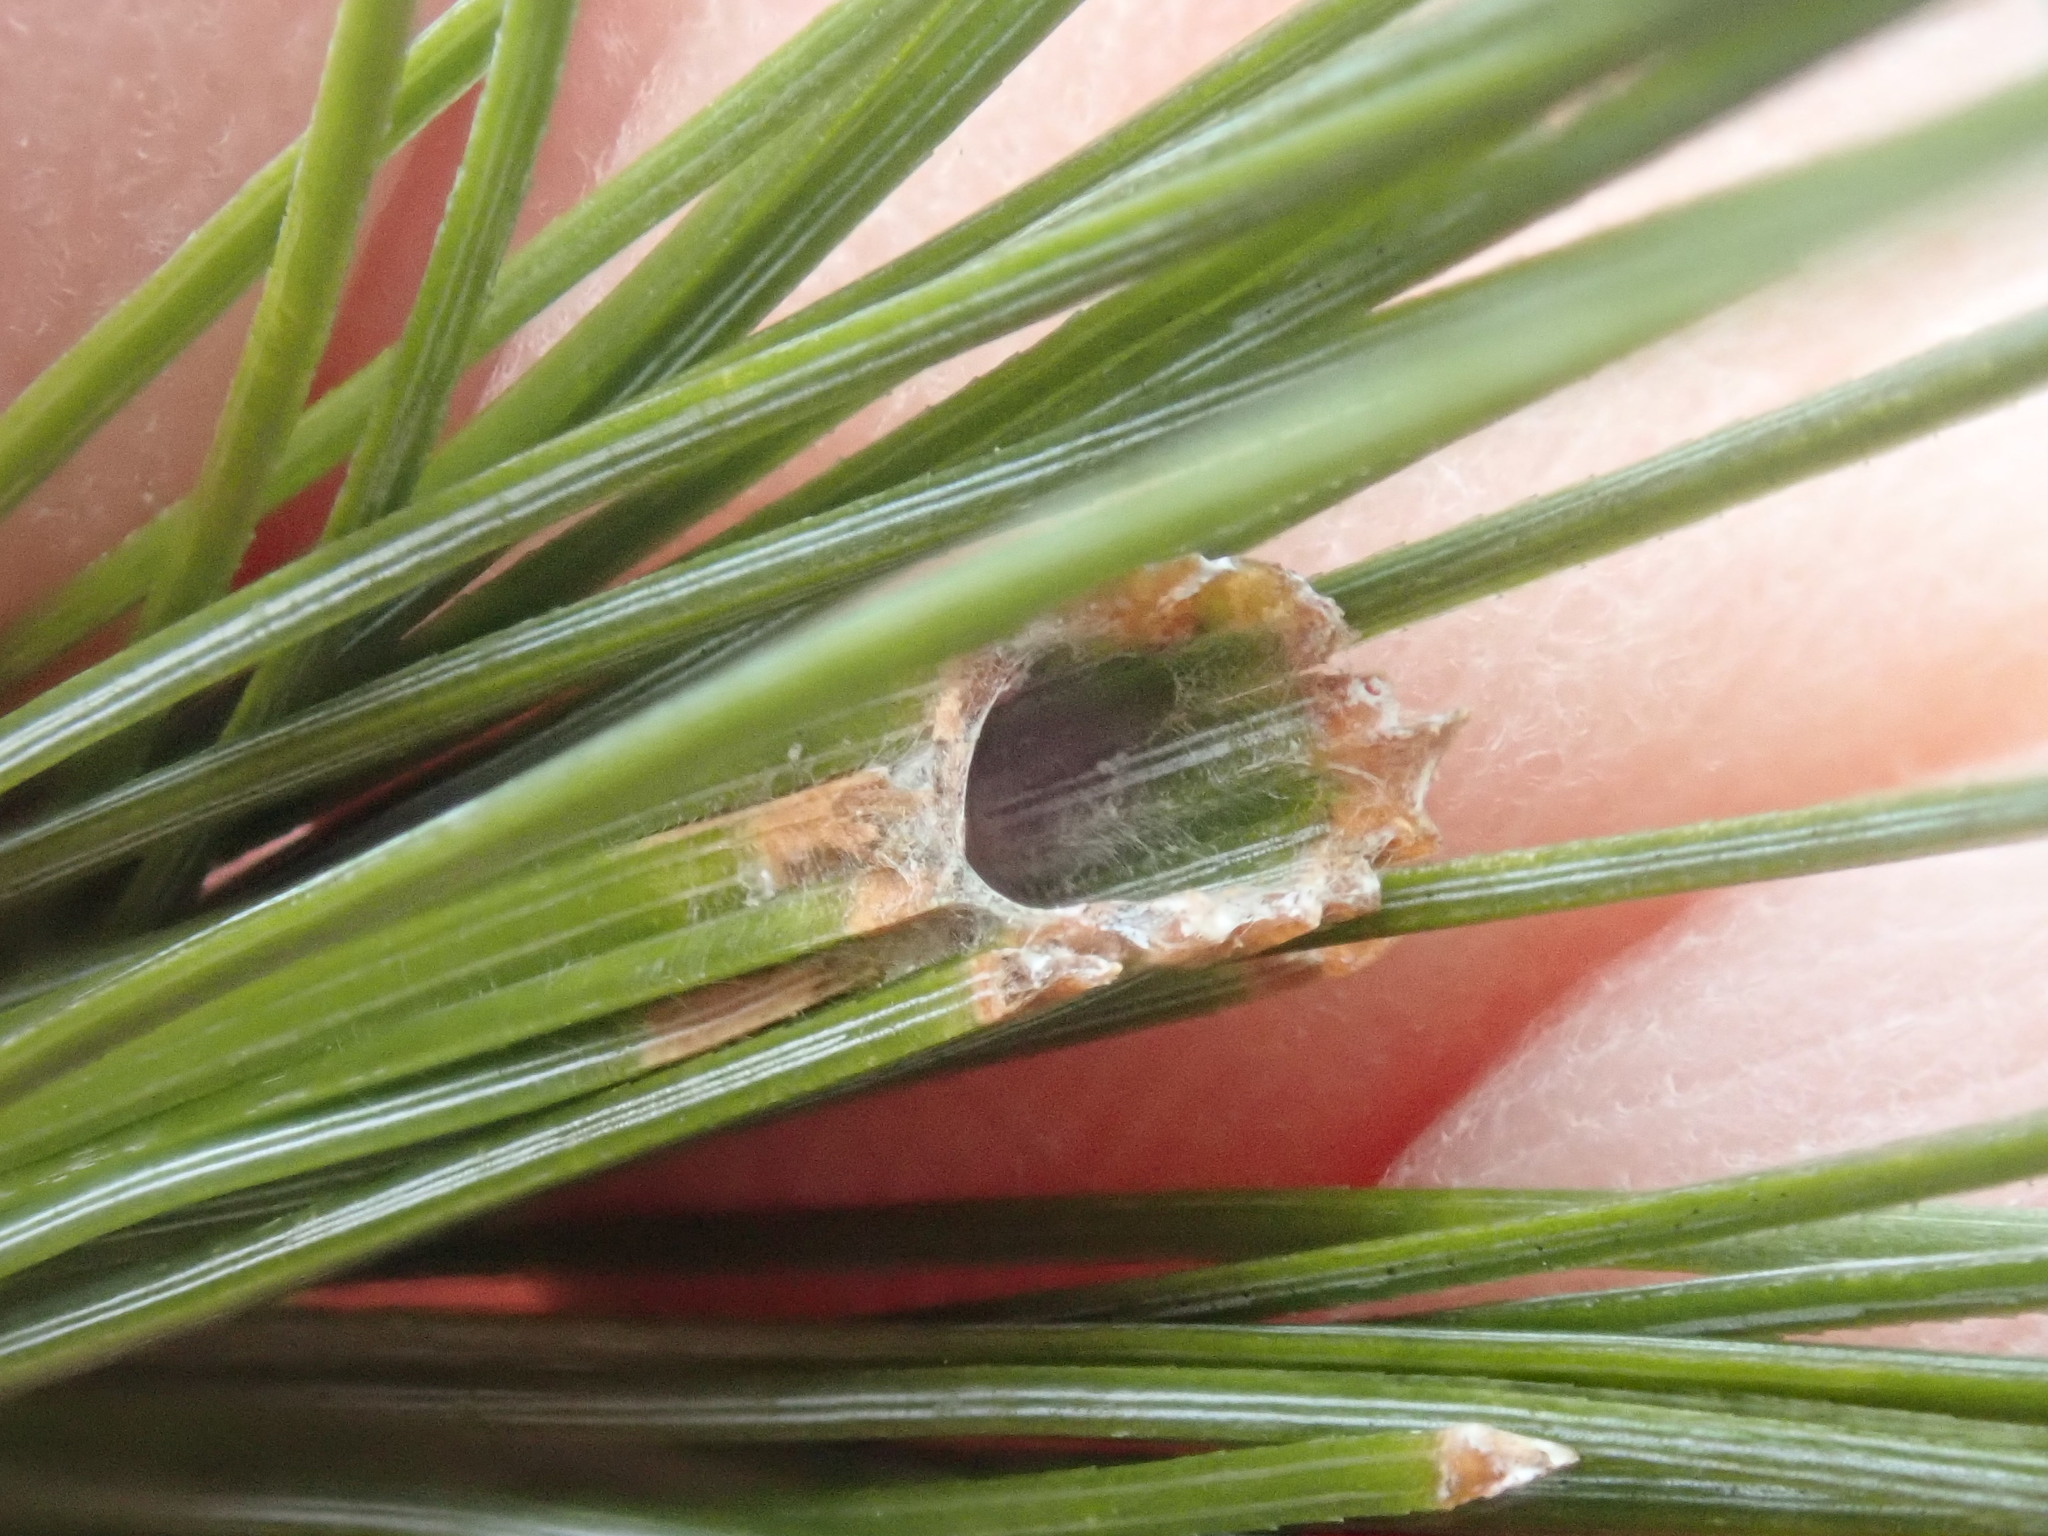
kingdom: Animalia
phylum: Arthropoda
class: Insecta
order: Lepidoptera
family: Tortricidae
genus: Argyrotaenia
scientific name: Argyrotaenia pinatubana
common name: Pine tube moth
